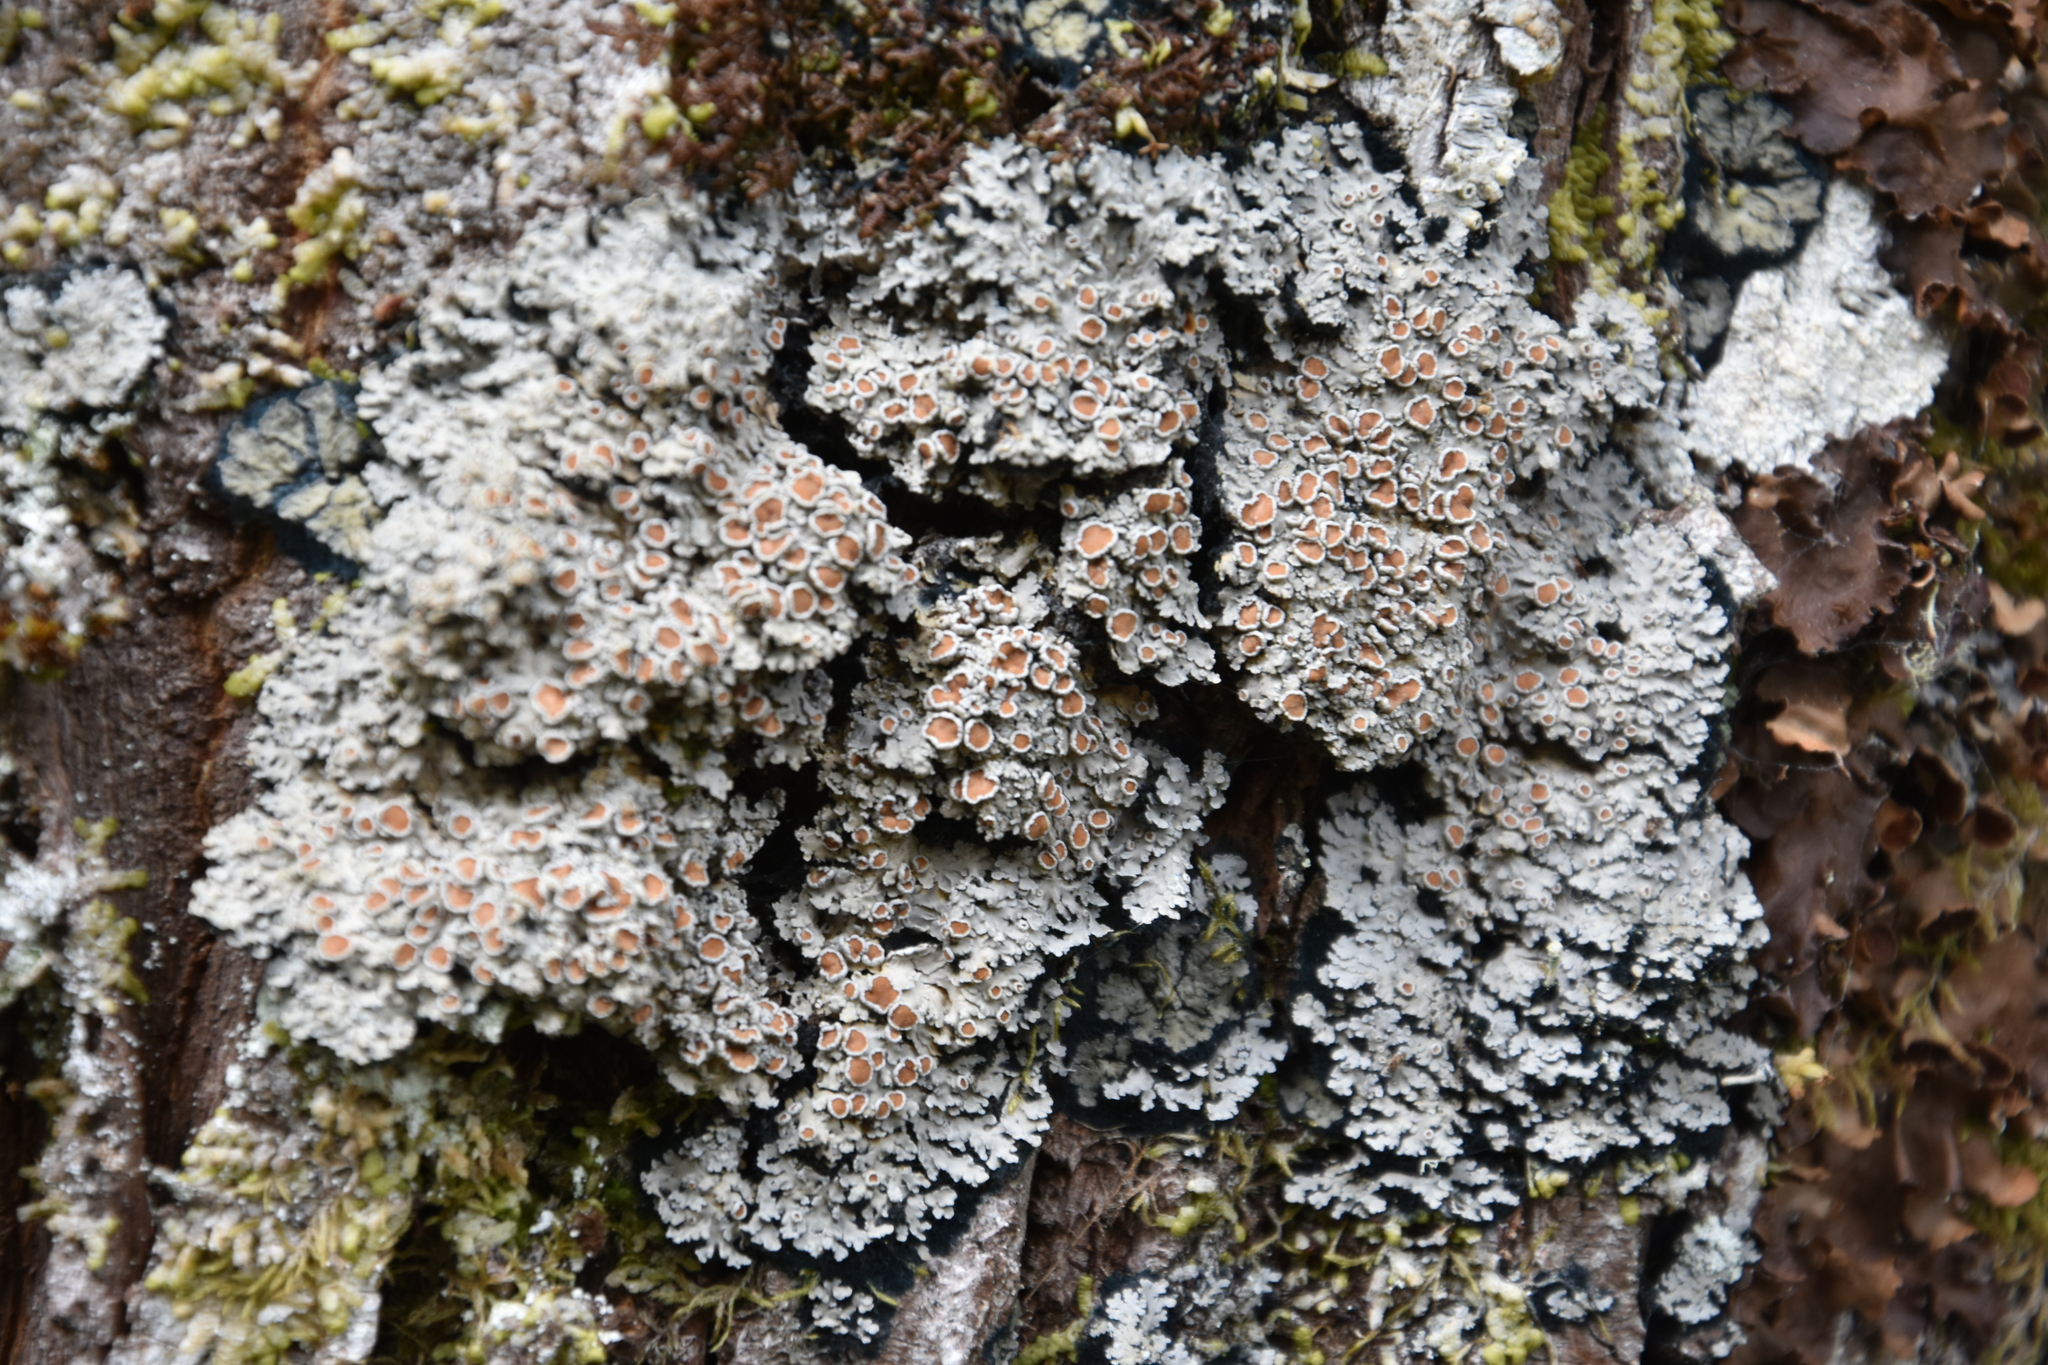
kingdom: Fungi
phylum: Ascomycota
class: Lecanoromycetes
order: Peltigerales
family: Pannariaceae
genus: Pannaria
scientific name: Pannaria rubiginosa
